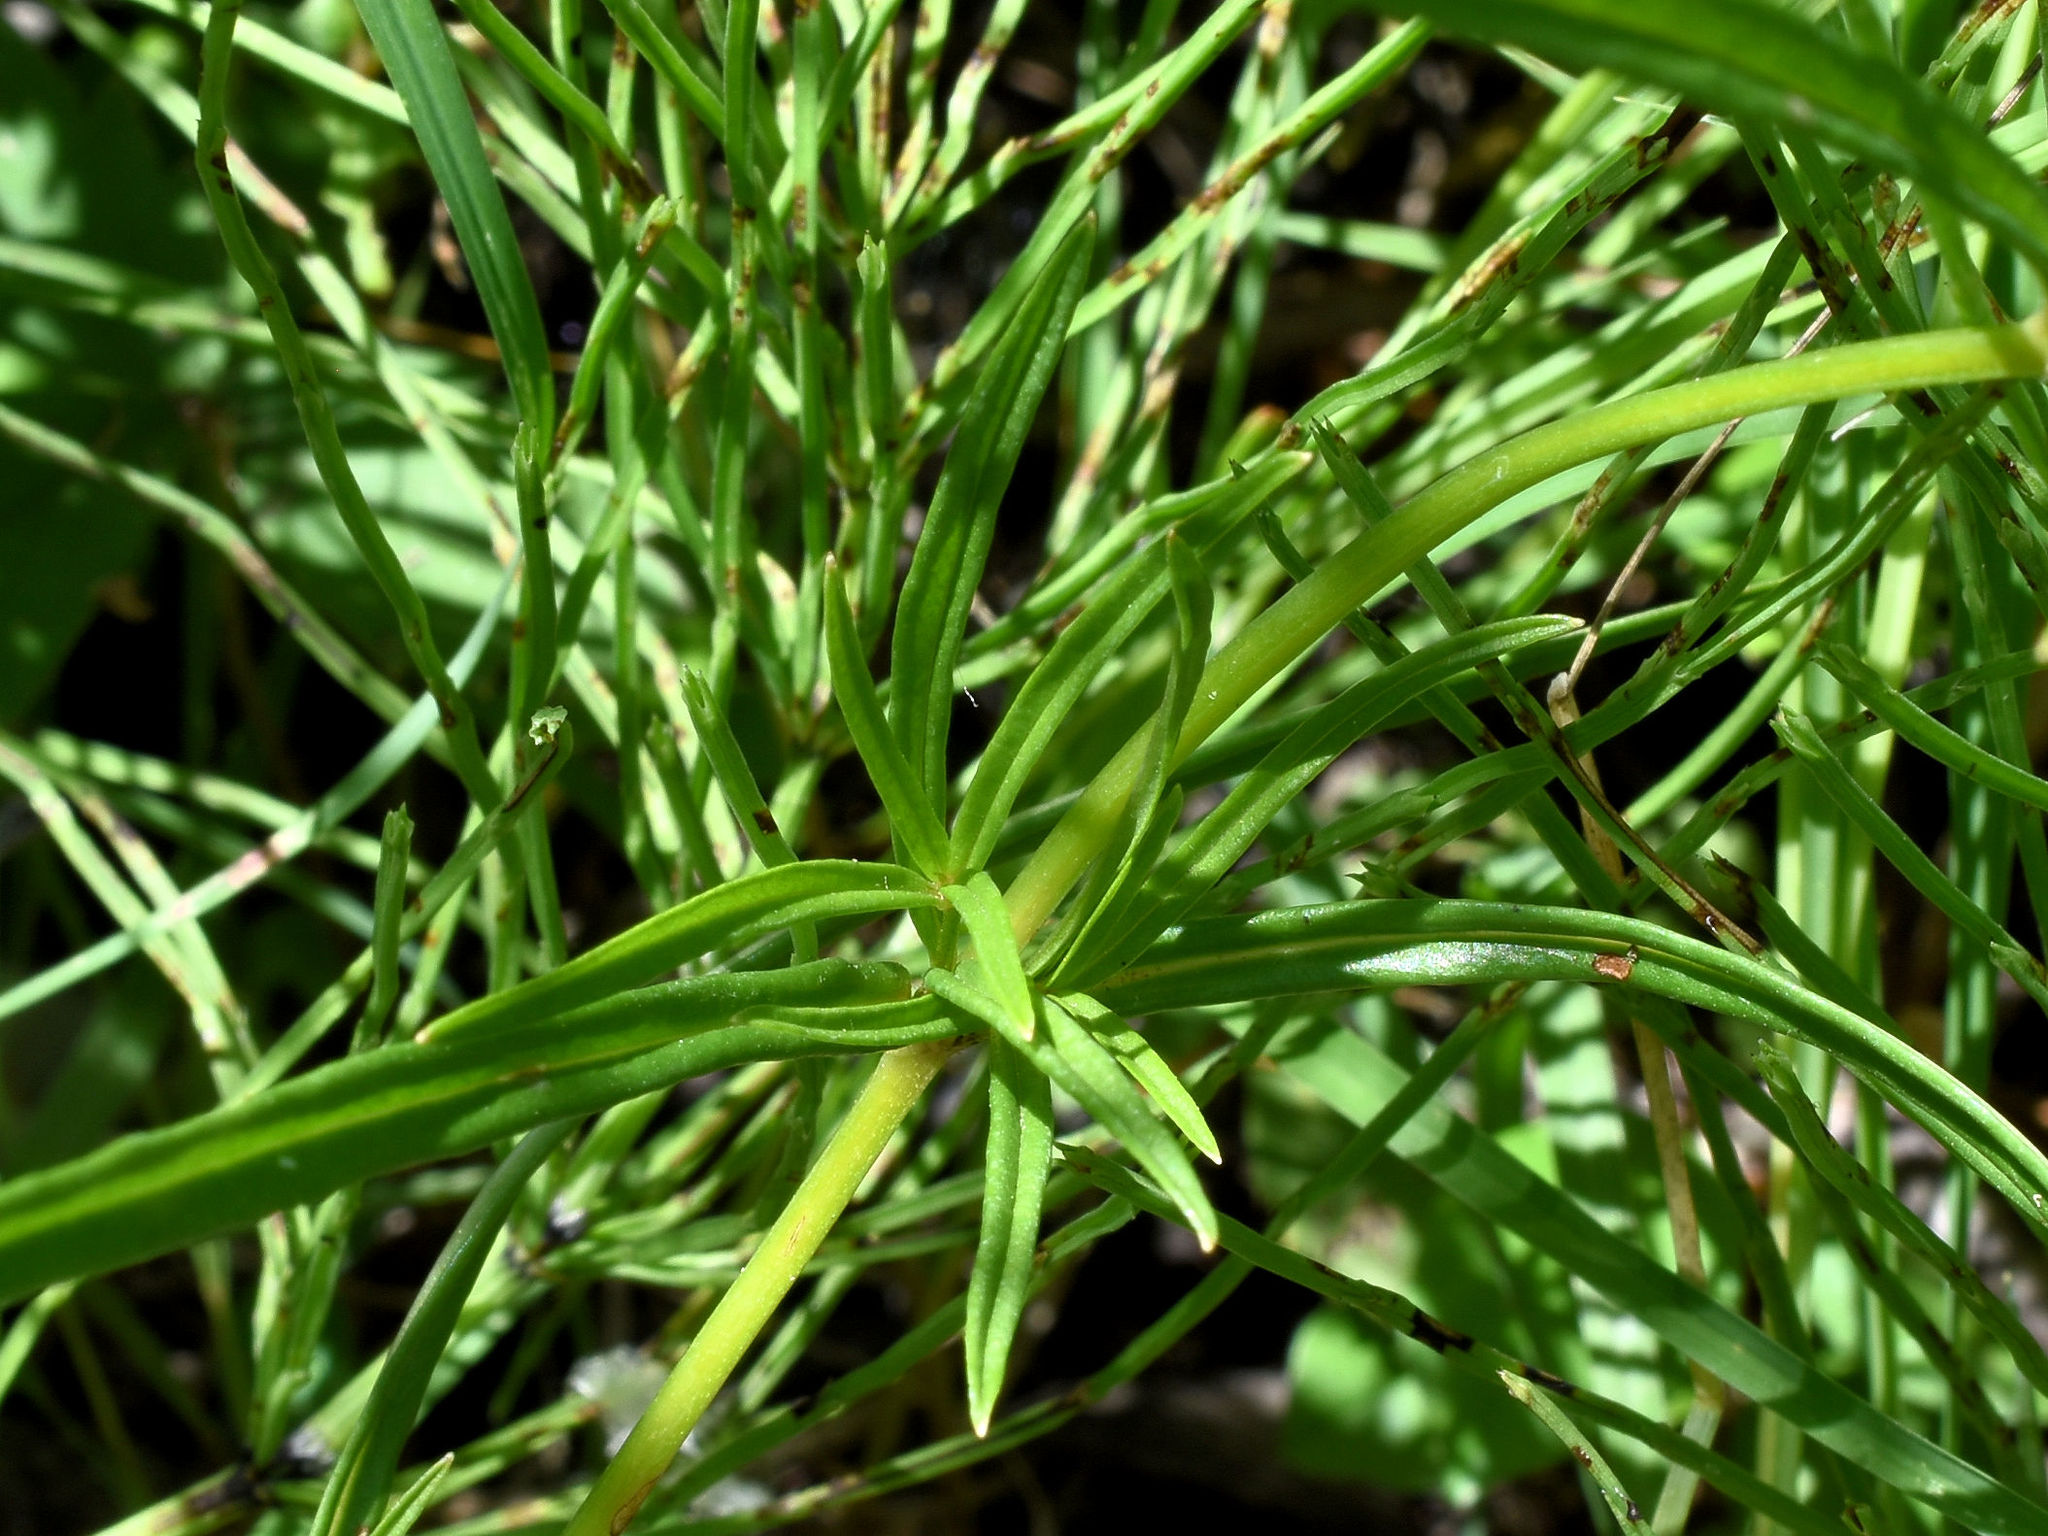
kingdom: Plantae
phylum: Tracheophyta
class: Magnoliopsida
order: Ericales
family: Primulaceae
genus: Lysimachia
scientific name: Lysimachia quadriflora
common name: Four-flowered loosestrife
